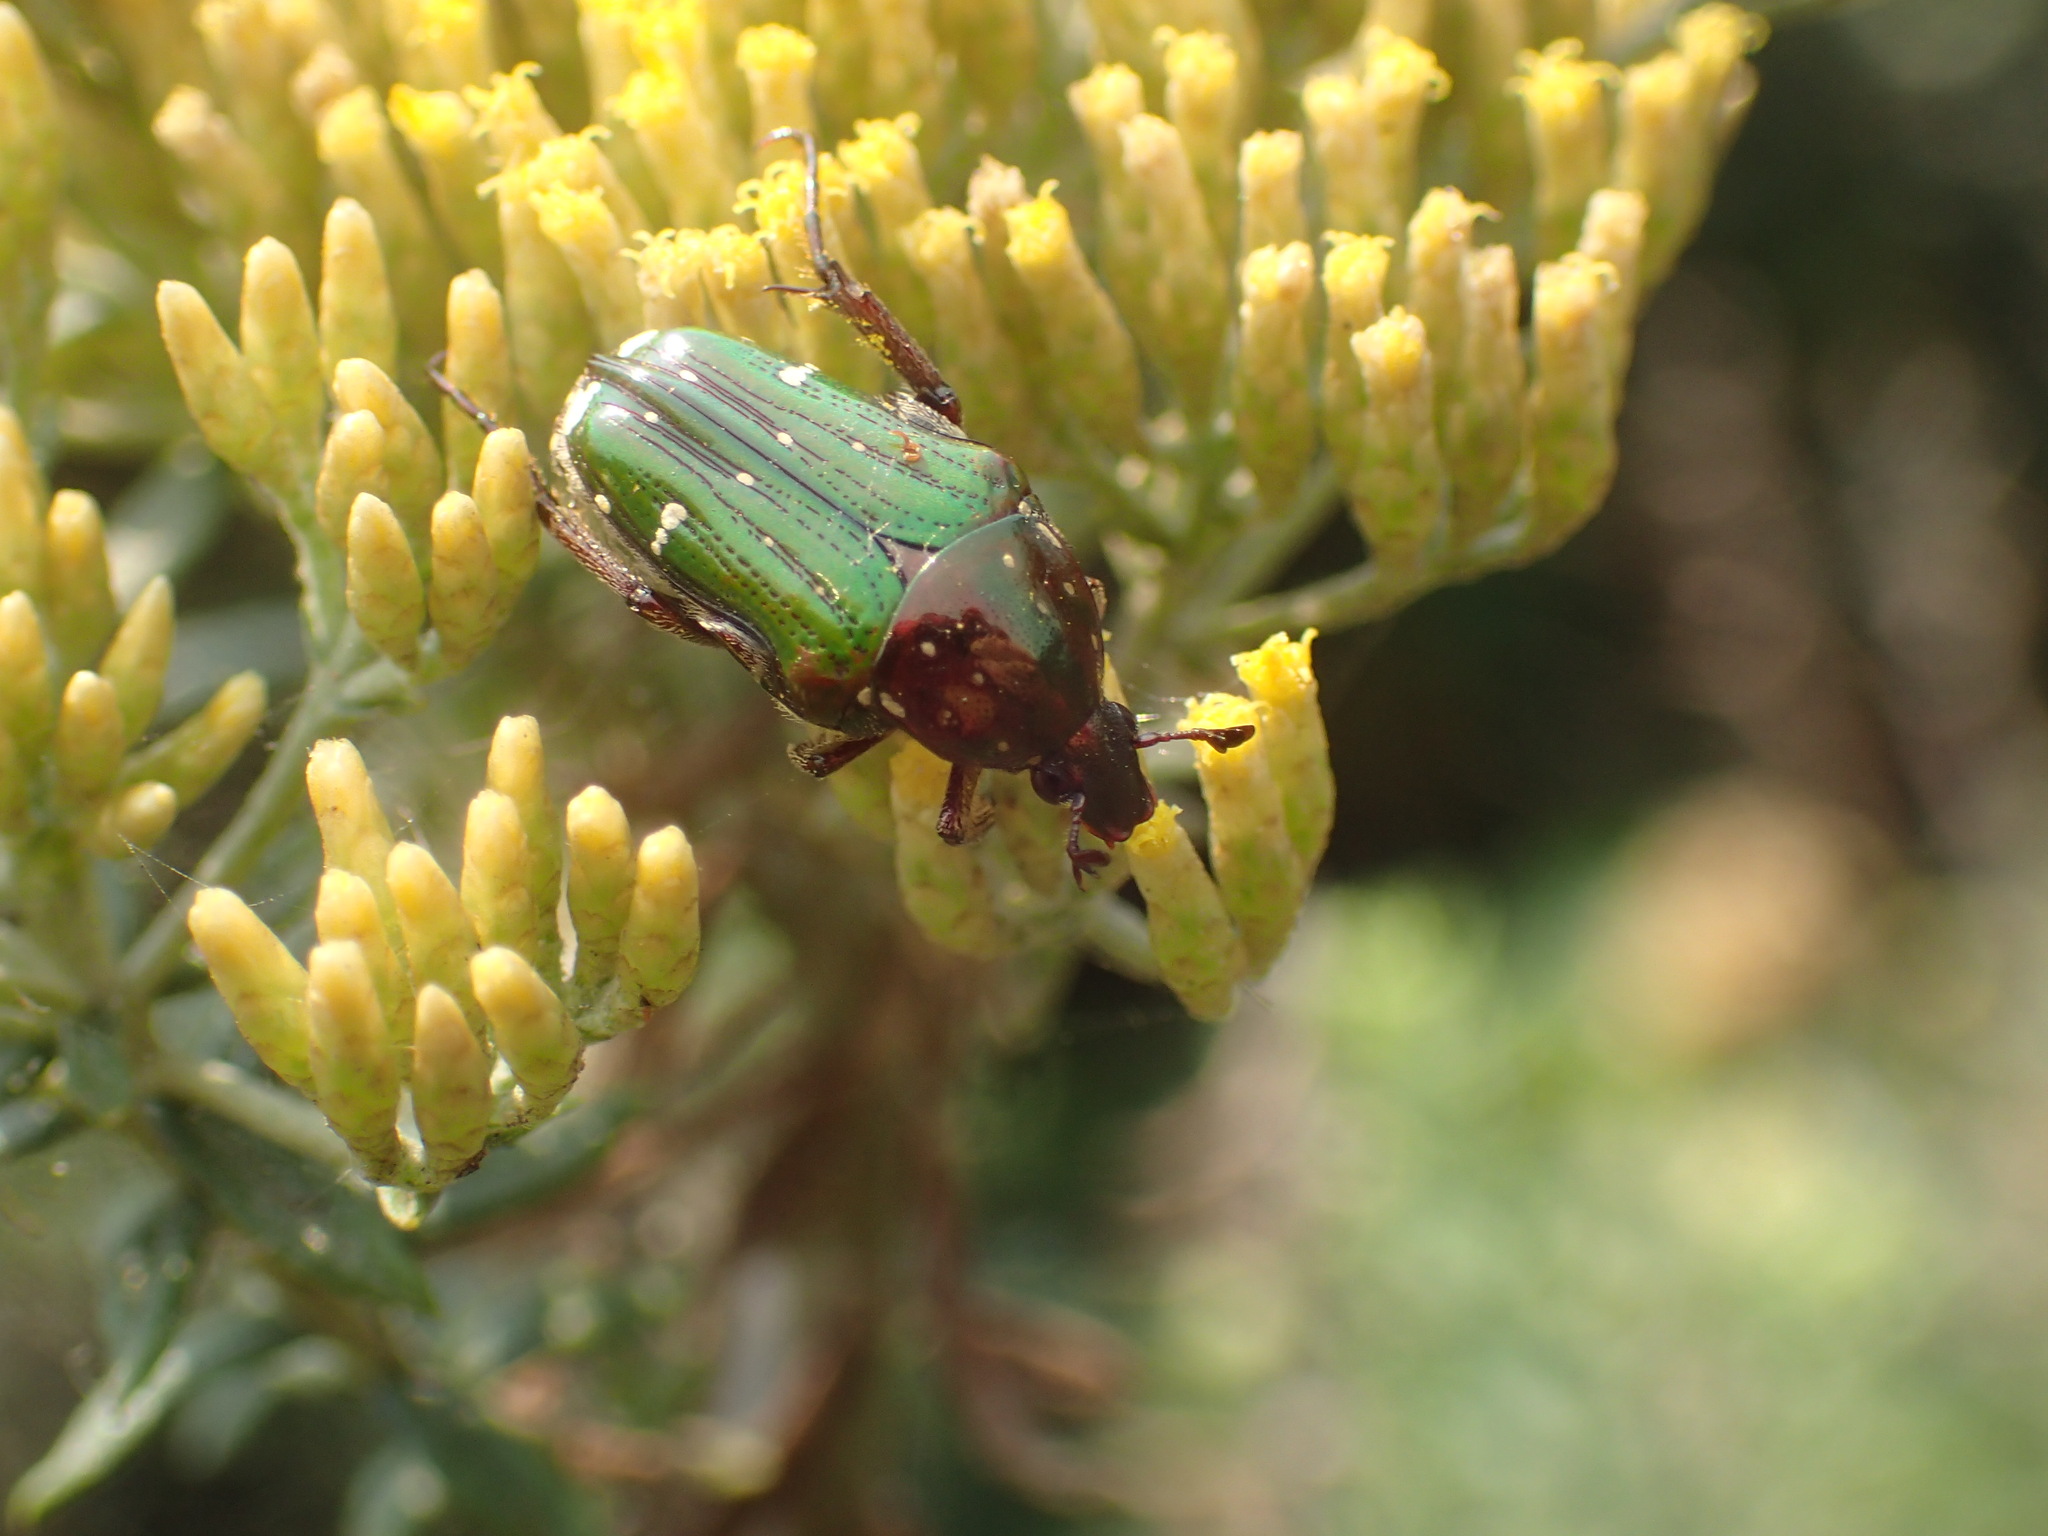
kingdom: Animalia
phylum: Arthropoda
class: Insecta
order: Coleoptera
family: Scarabaeidae
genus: Leucocelis
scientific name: Leucocelis aeneicollis
